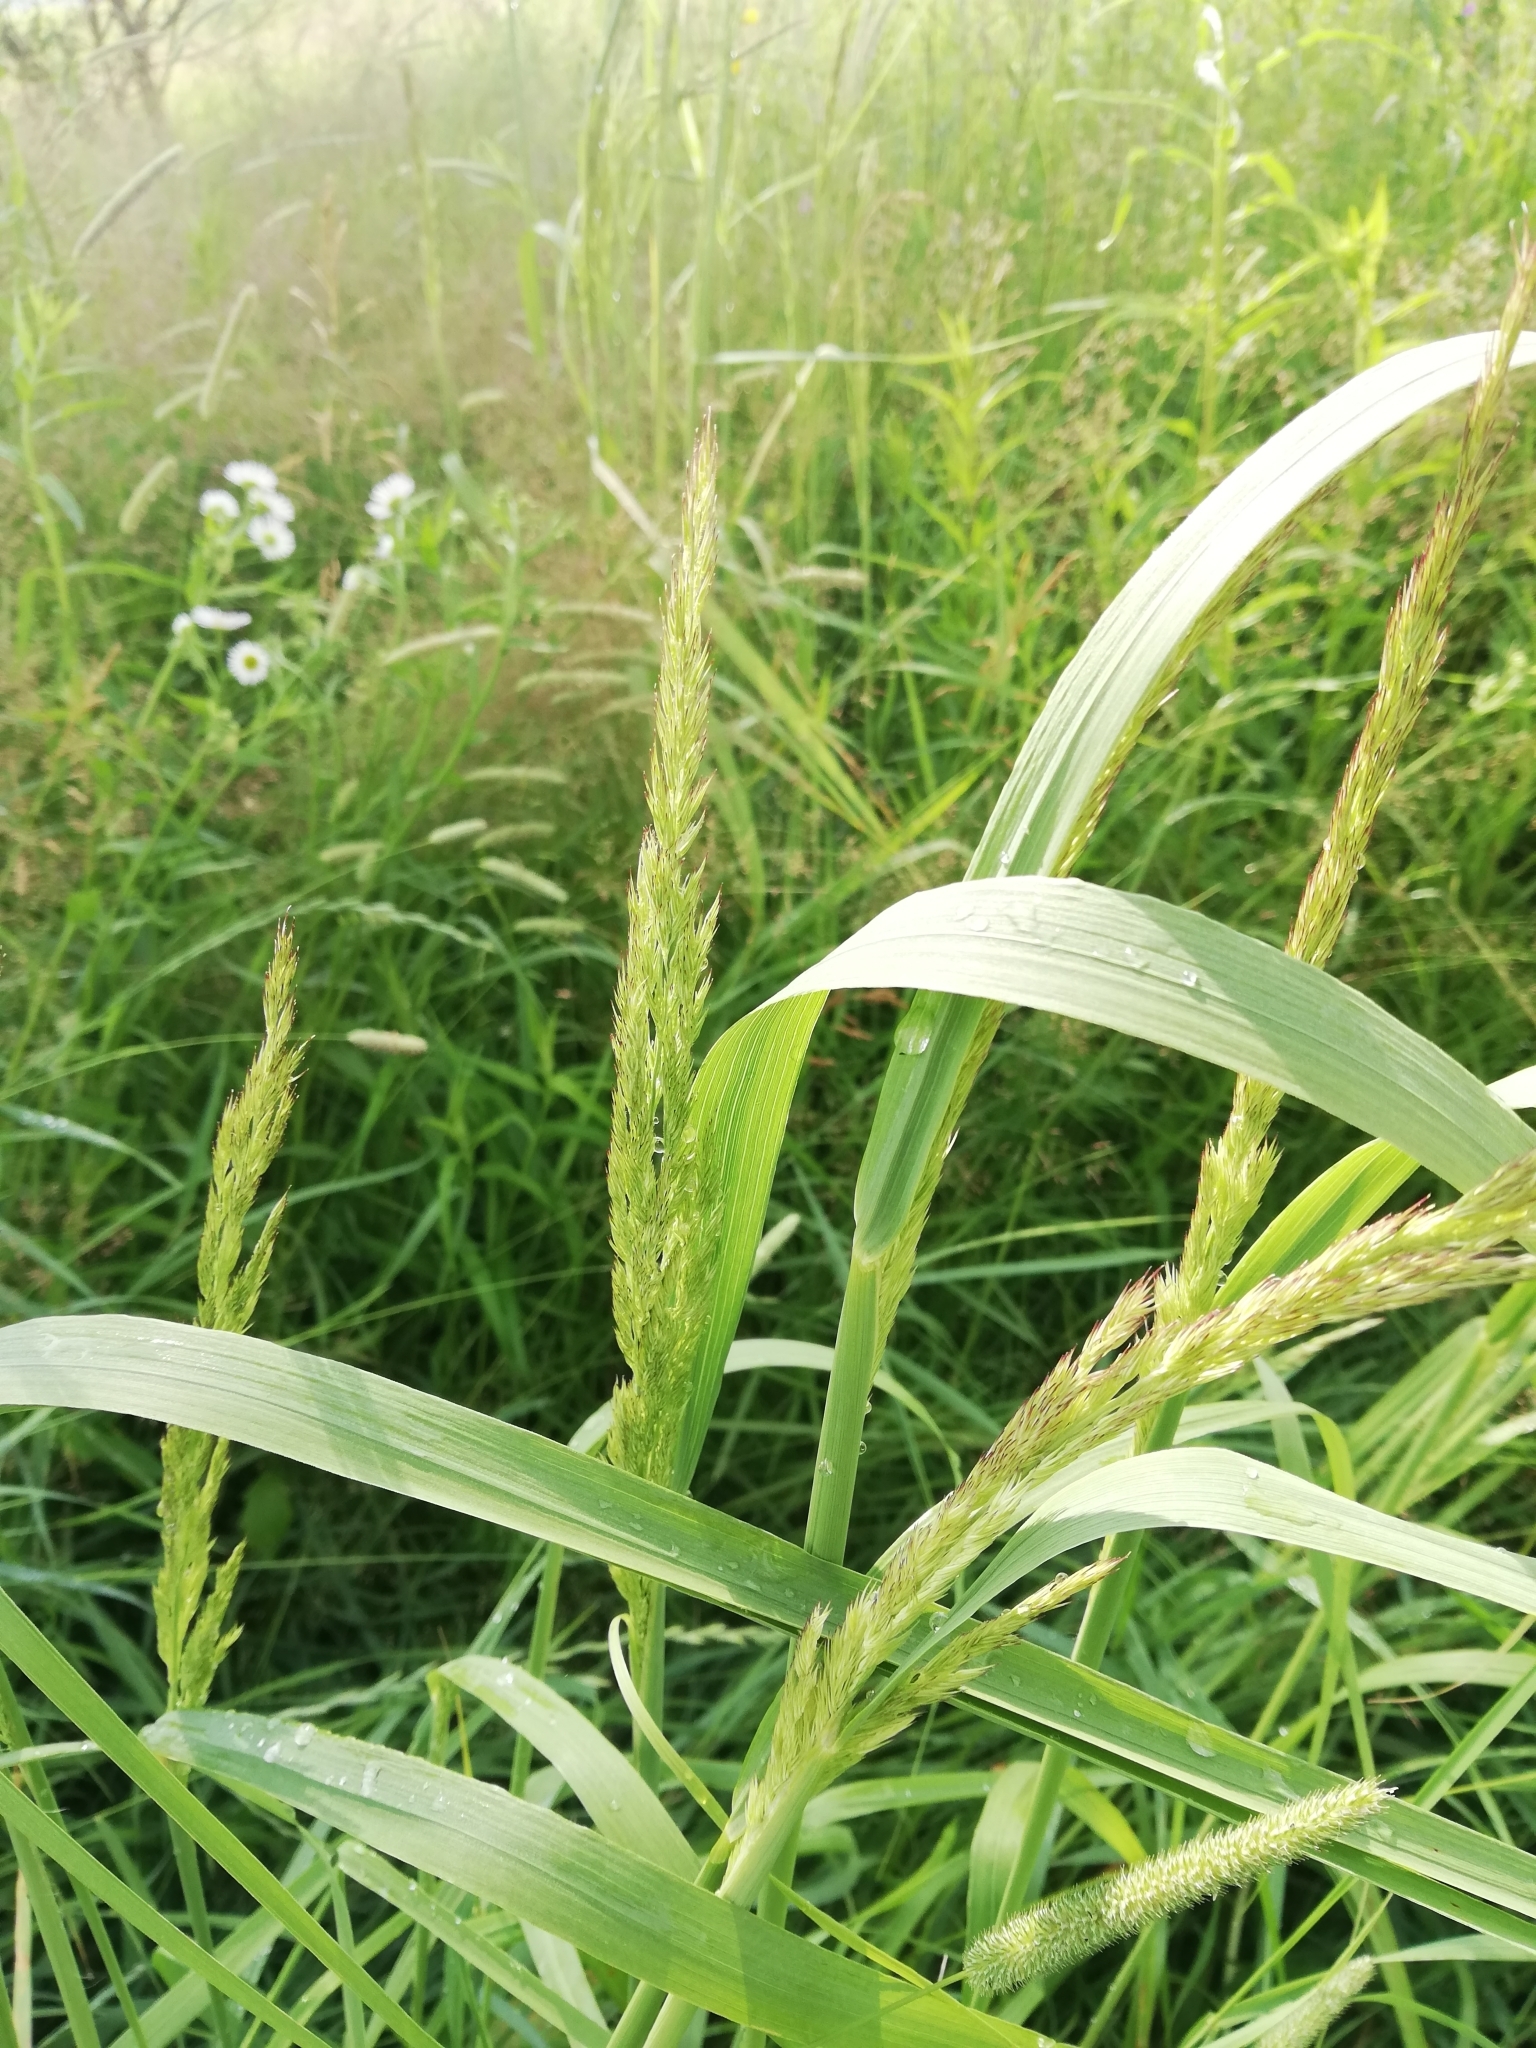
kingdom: Plantae
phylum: Tracheophyta
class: Liliopsida
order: Poales
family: Poaceae
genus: Calamagrostis
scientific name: Calamagrostis epigejos
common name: Wood small-reed
